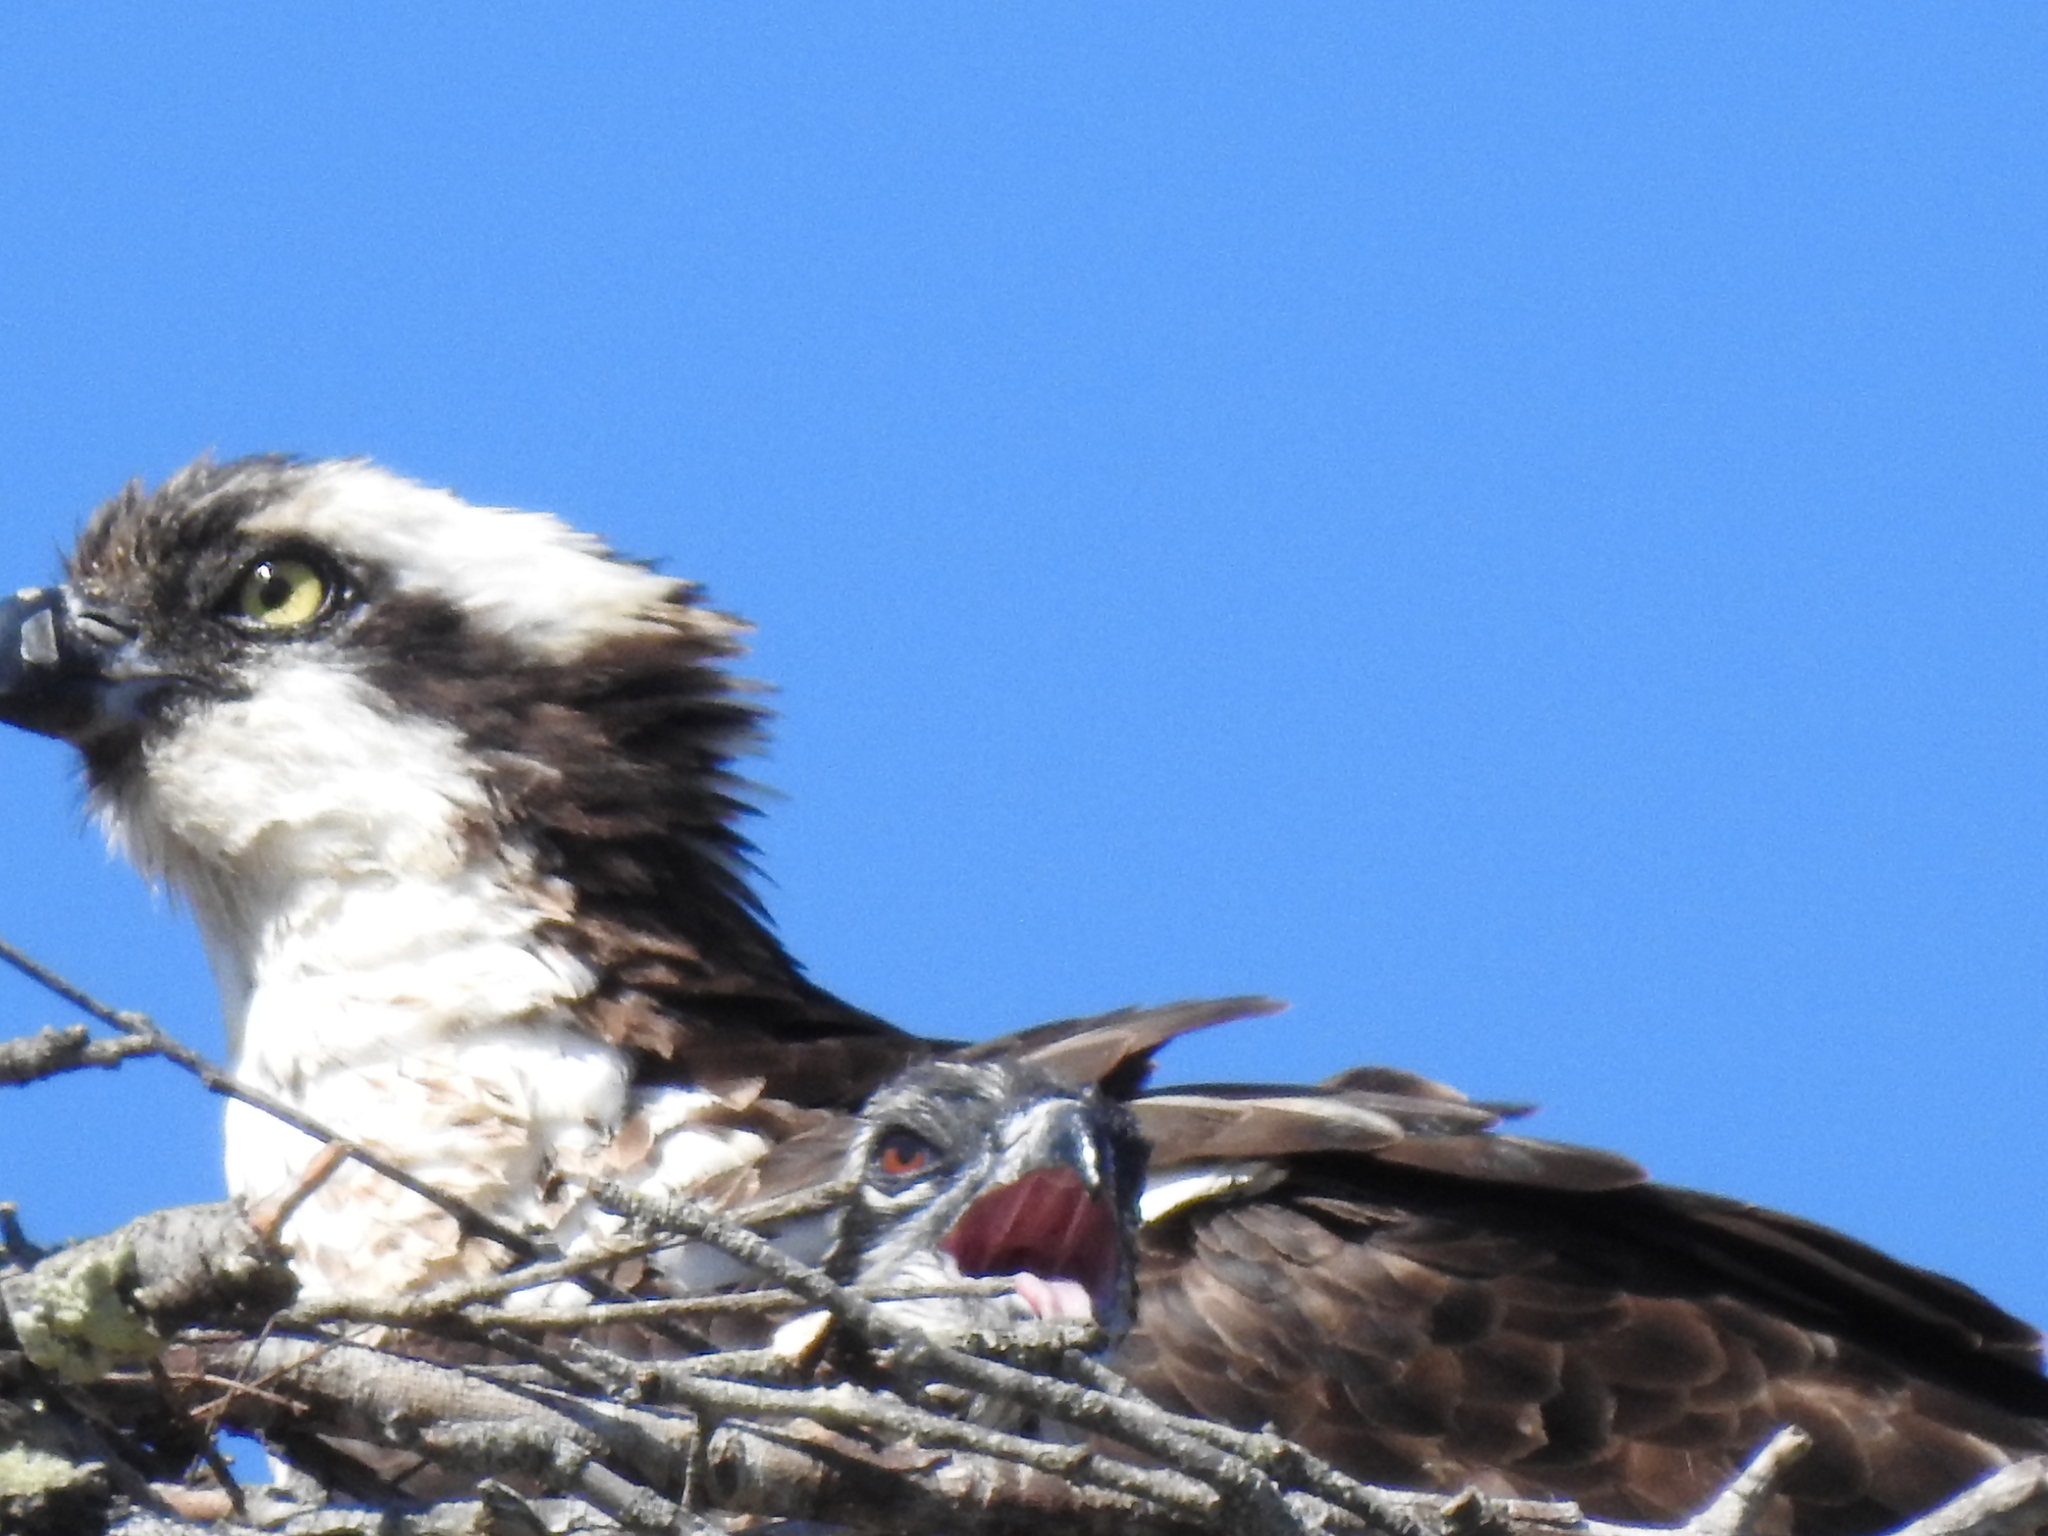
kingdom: Animalia
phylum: Chordata
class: Aves
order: Accipitriformes
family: Pandionidae
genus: Pandion
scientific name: Pandion haliaetus
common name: Osprey
